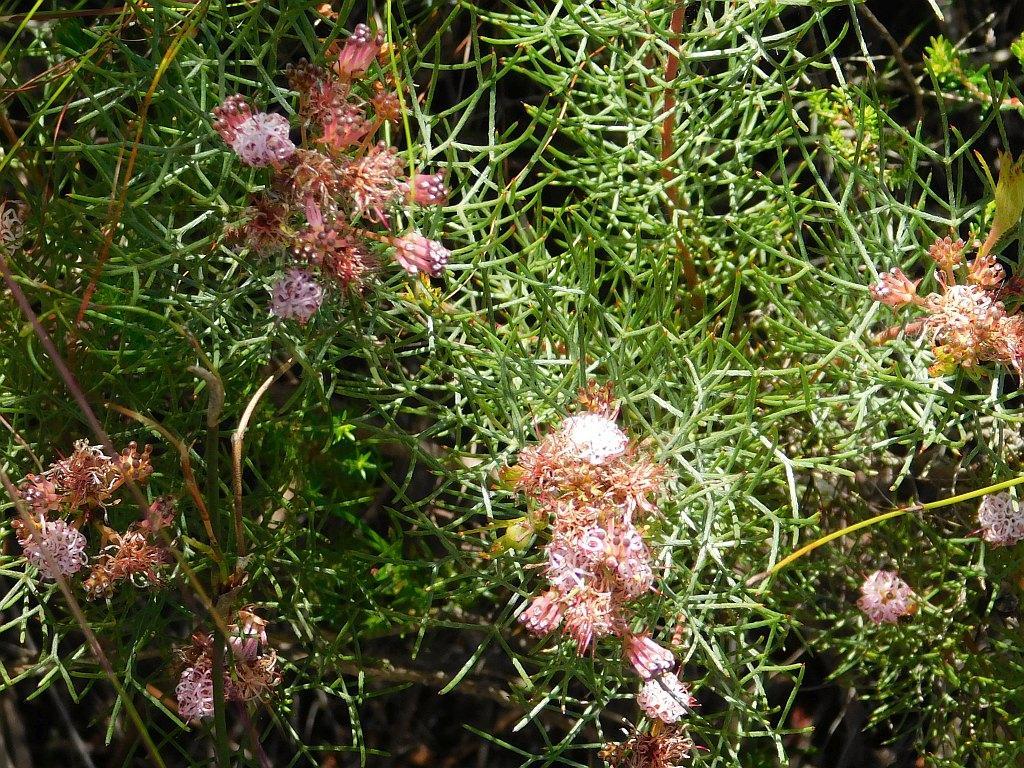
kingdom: Plantae
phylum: Tracheophyta
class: Magnoliopsida
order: Proteales
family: Proteaceae
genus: Serruria
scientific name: Serruria fasciflora
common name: Common pin spiderhead
